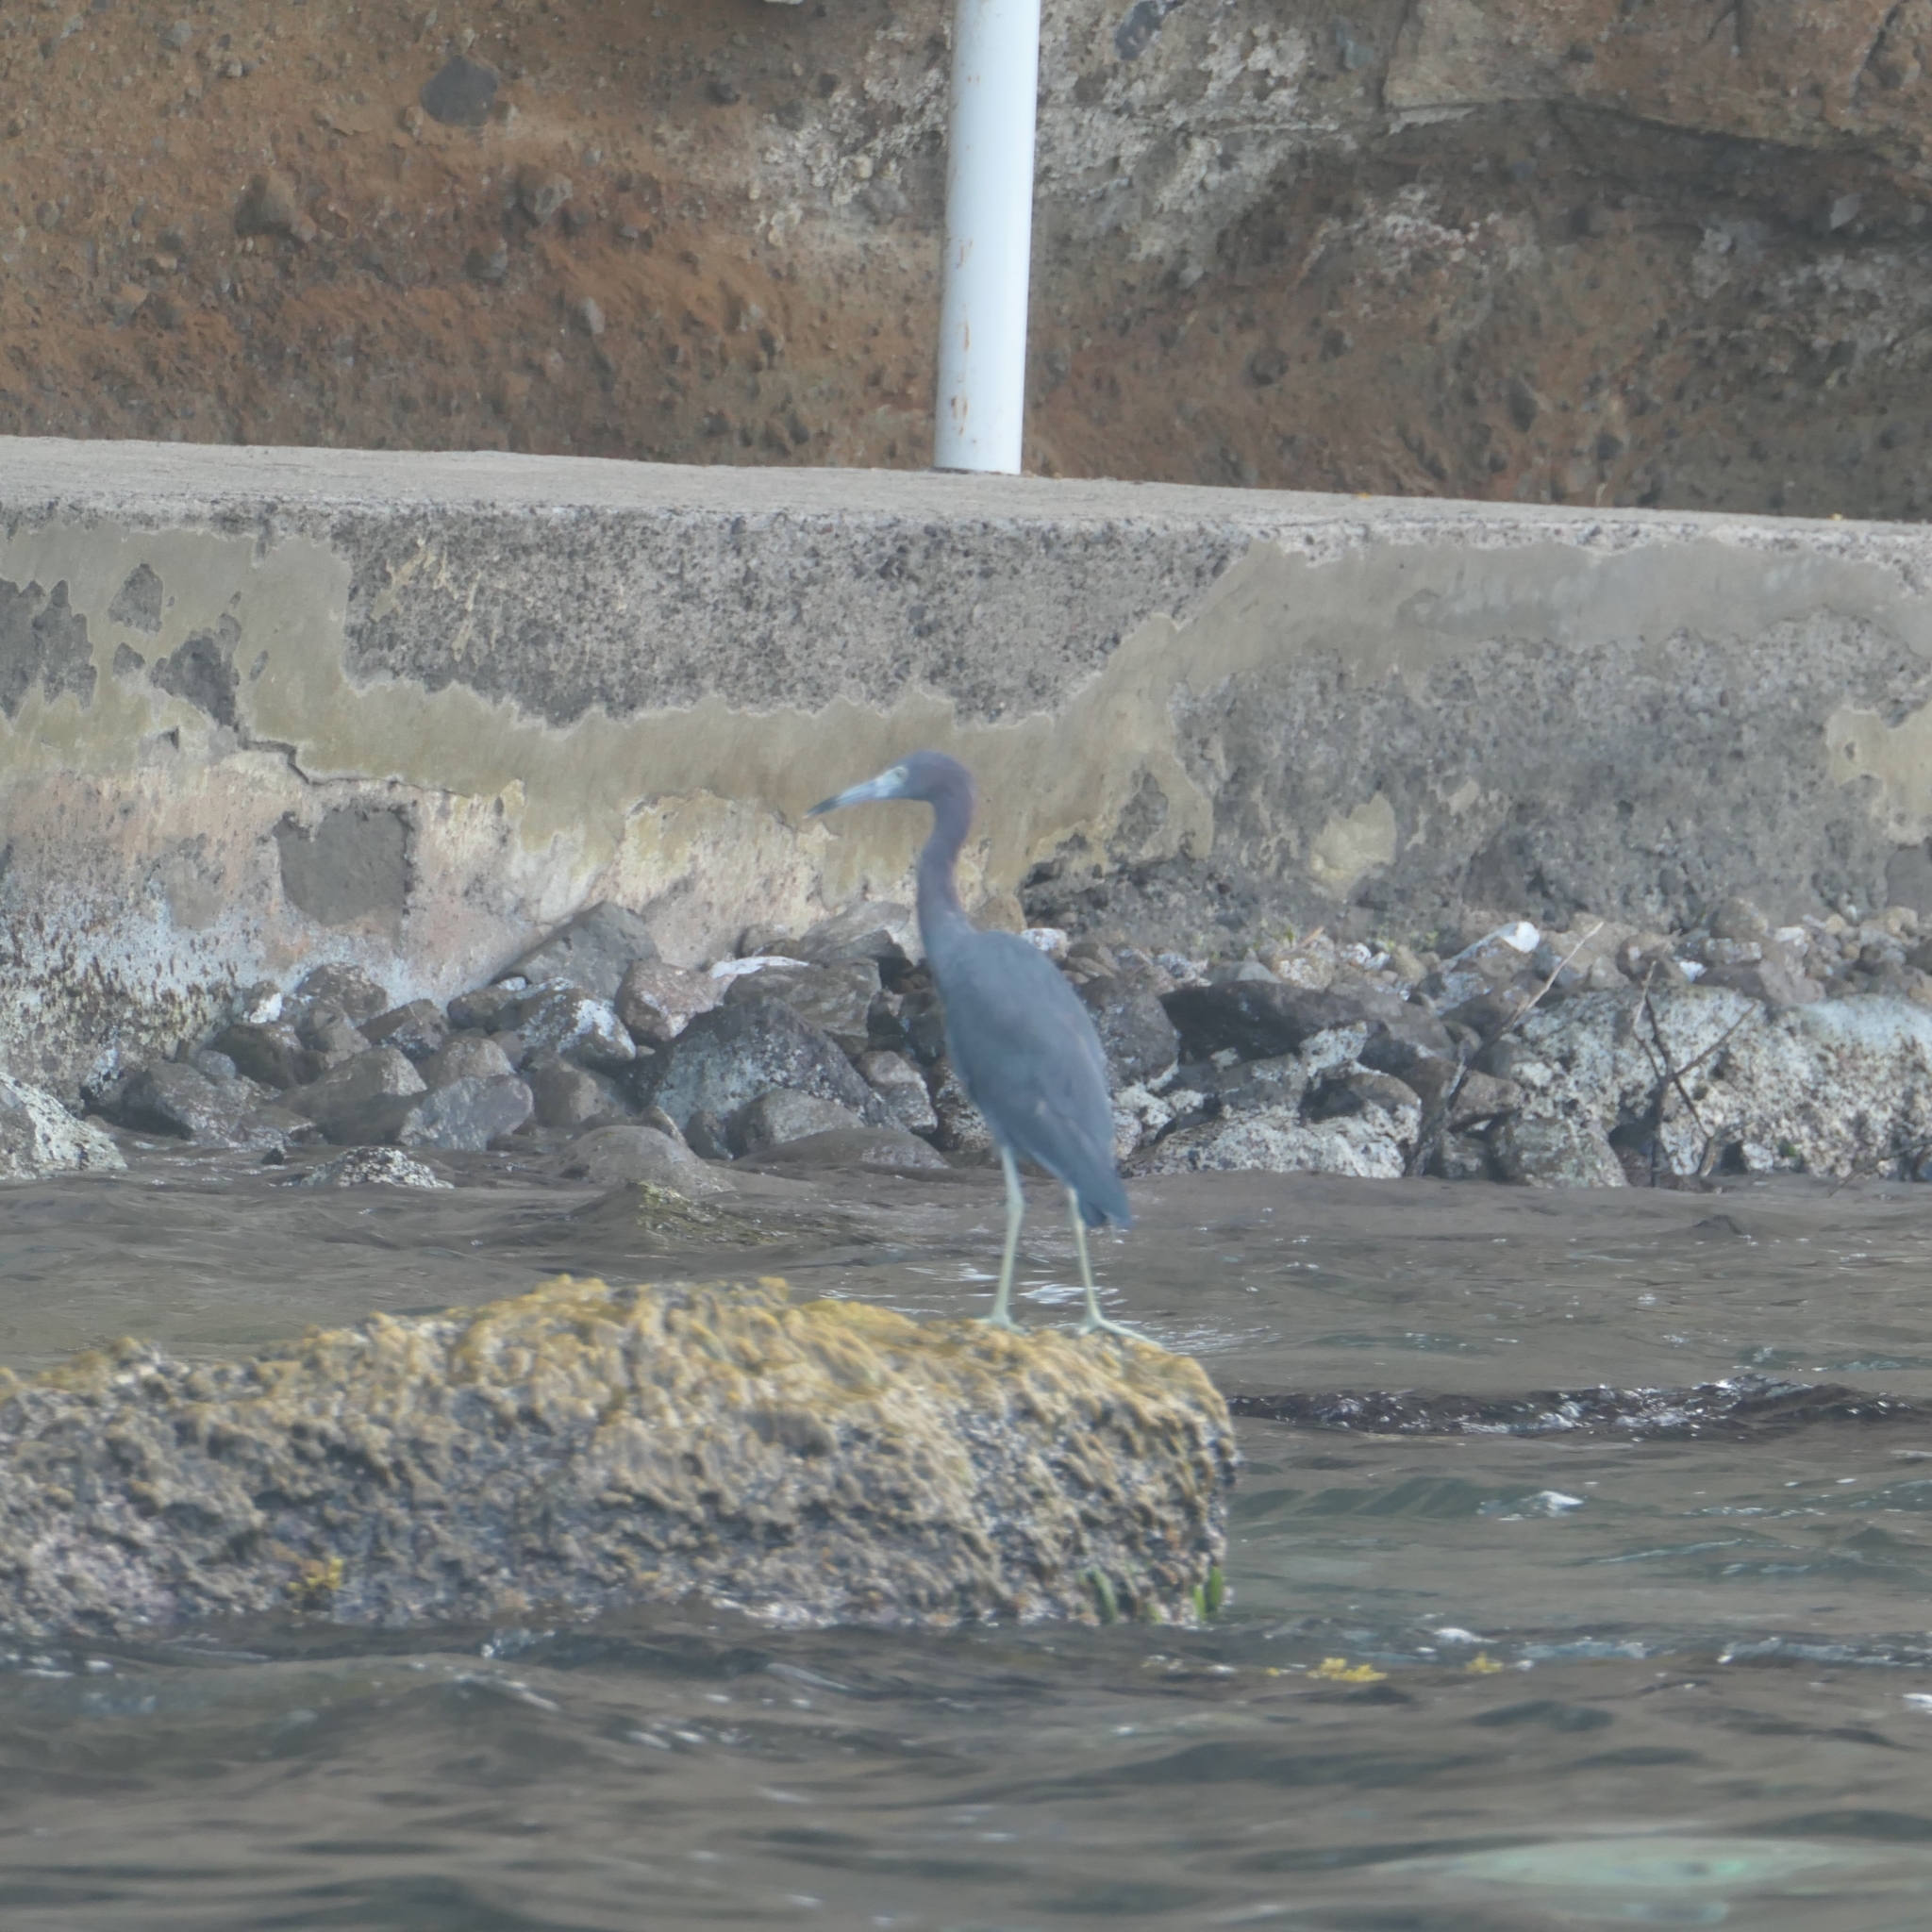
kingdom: Animalia
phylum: Chordata
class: Aves
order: Pelecaniformes
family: Ardeidae
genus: Egretta
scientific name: Egretta caerulea
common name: Little blue heron
